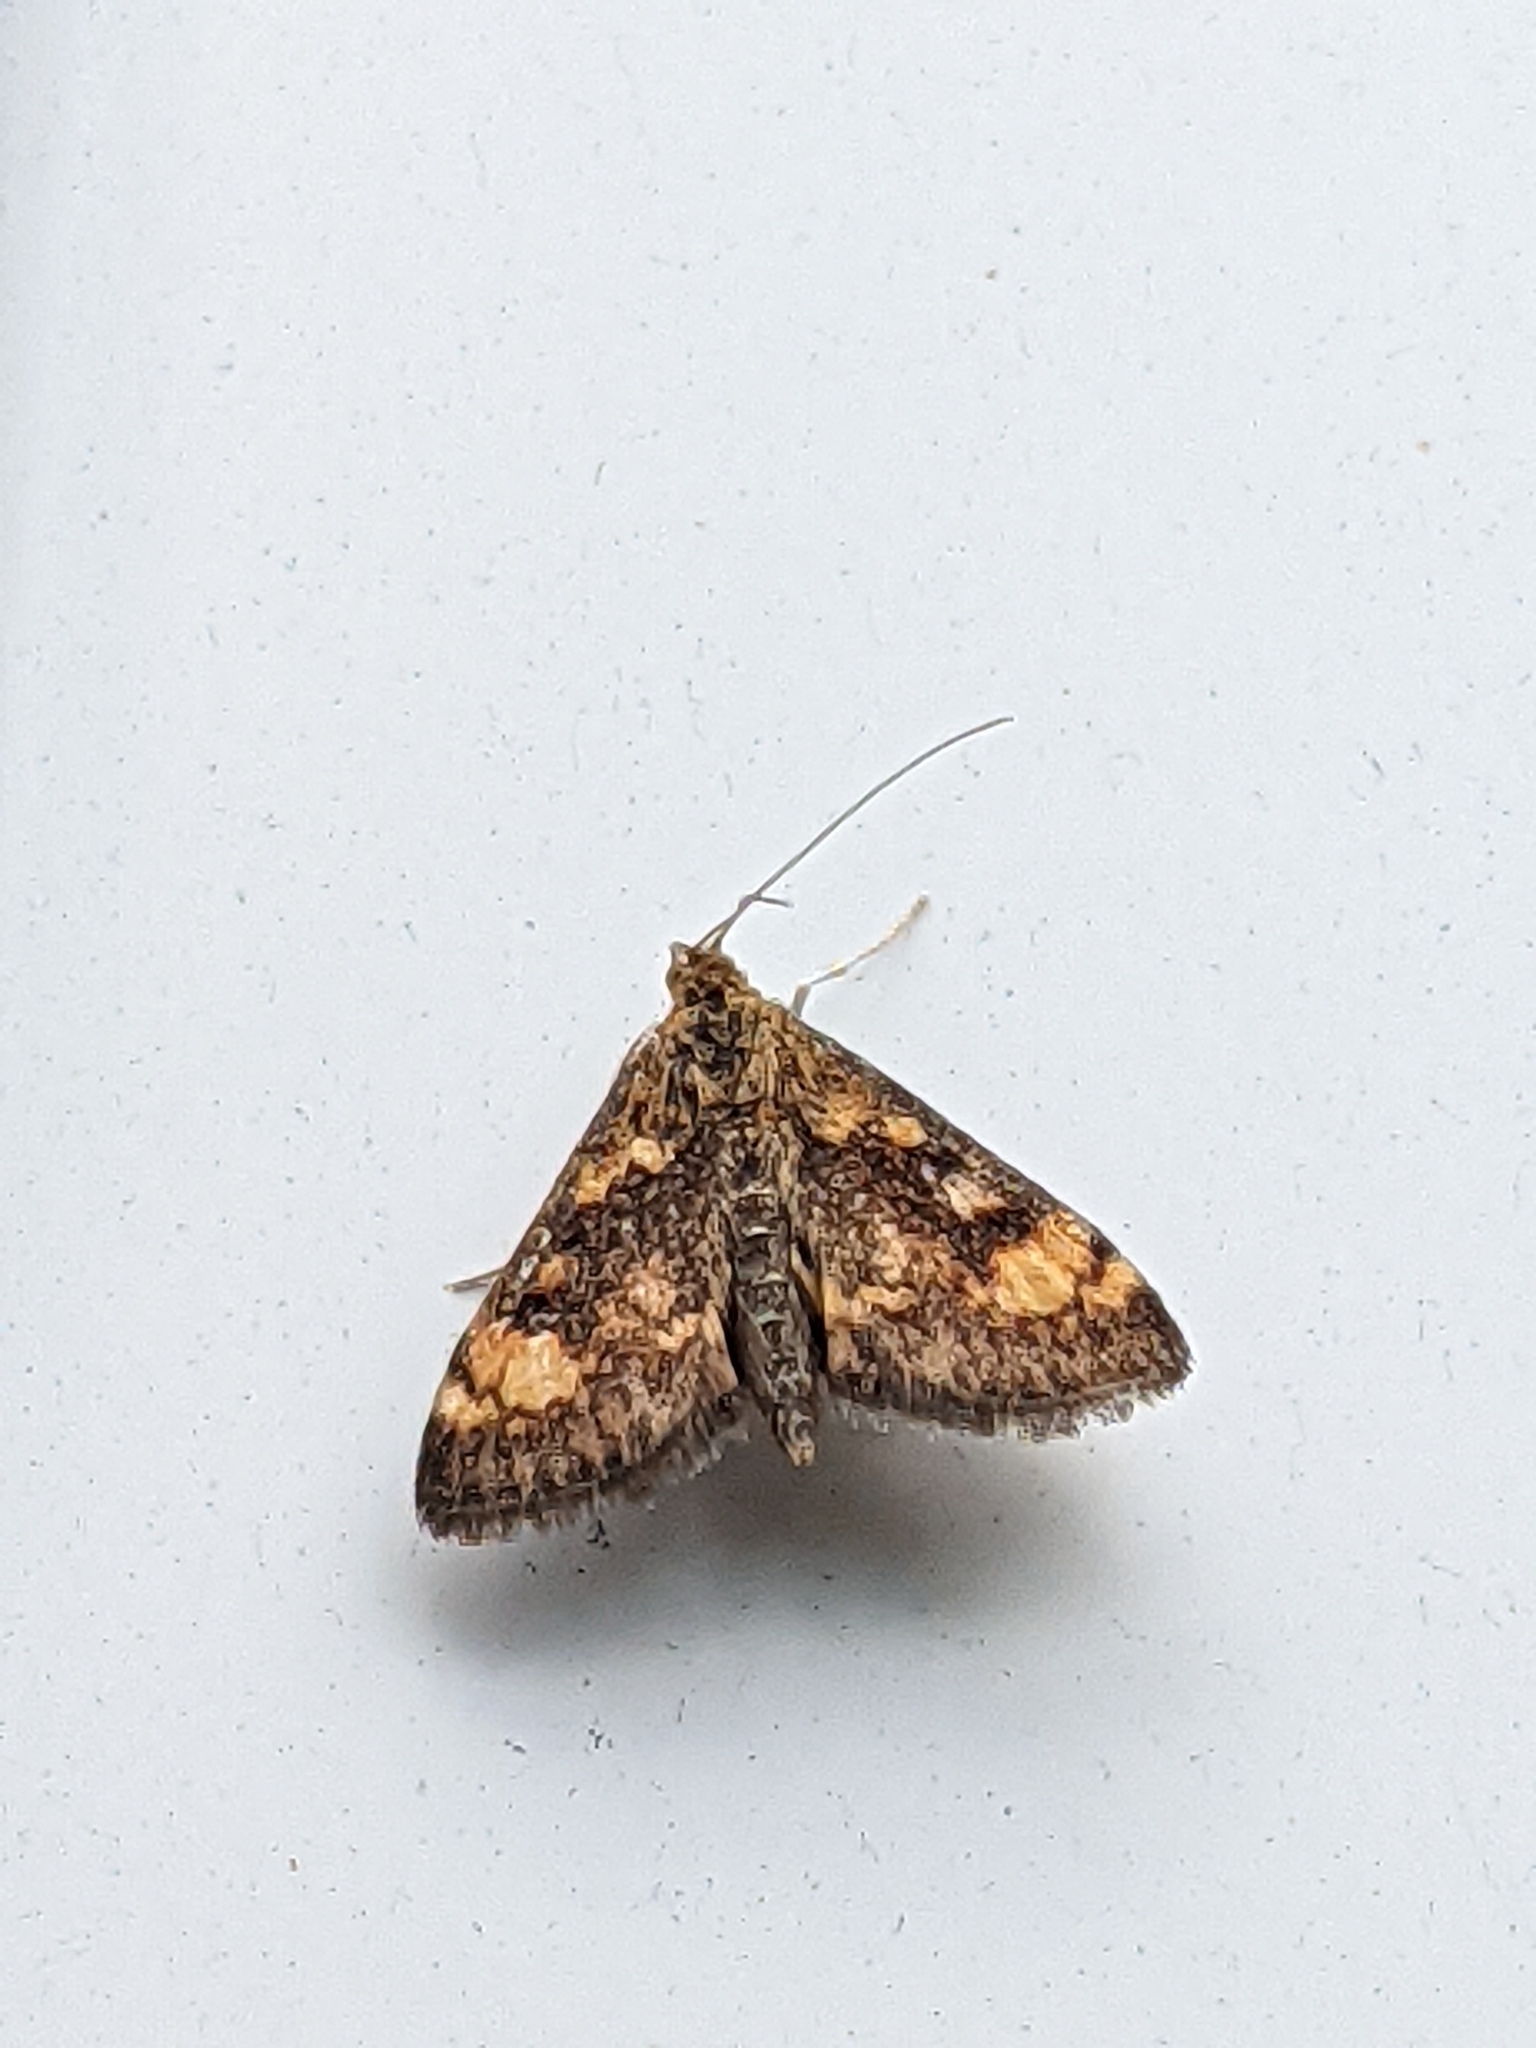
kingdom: Animalia
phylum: Arthropoda
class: Insecta
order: Lepidoptera
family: Crambidae
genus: Pyrausta
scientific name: Pyrausta orphisalis
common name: Orange mint moth
